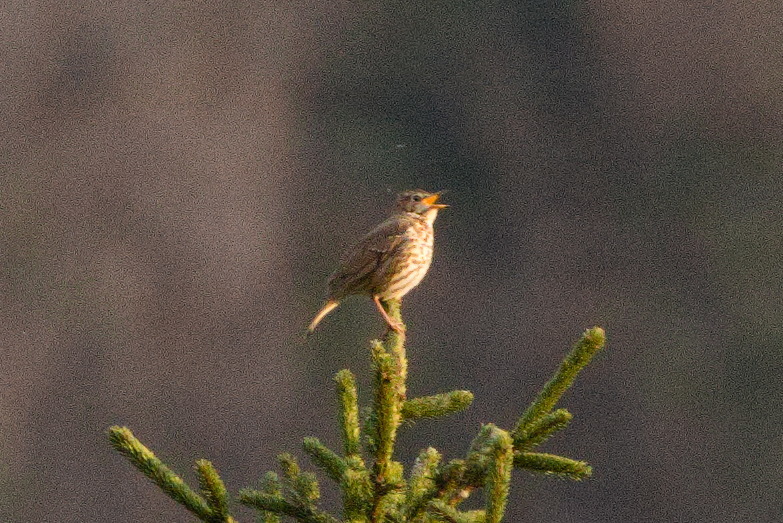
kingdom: Animalia
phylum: Chordata
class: Aves
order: Passeriformes
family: Turdidae
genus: Turdus
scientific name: Turdus philomelos
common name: Song thrush
